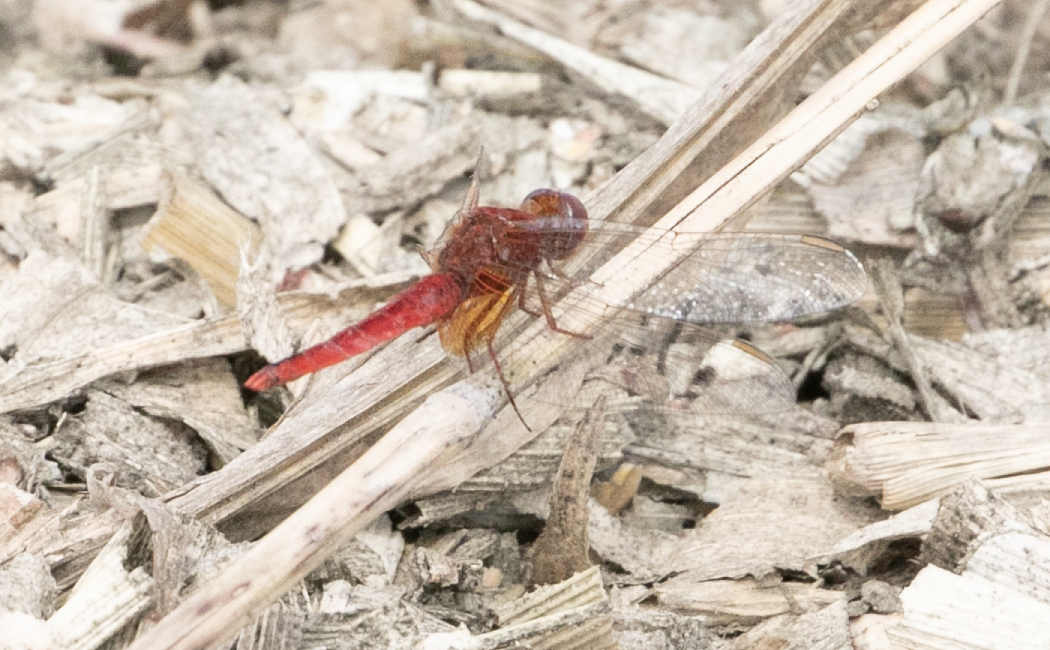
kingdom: Animalia
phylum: Arthropoda
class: Insecta
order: Odonata
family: Libellulidae
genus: Crocothemis
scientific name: Crocothemis erythraea
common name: Scarlet dragonfly
